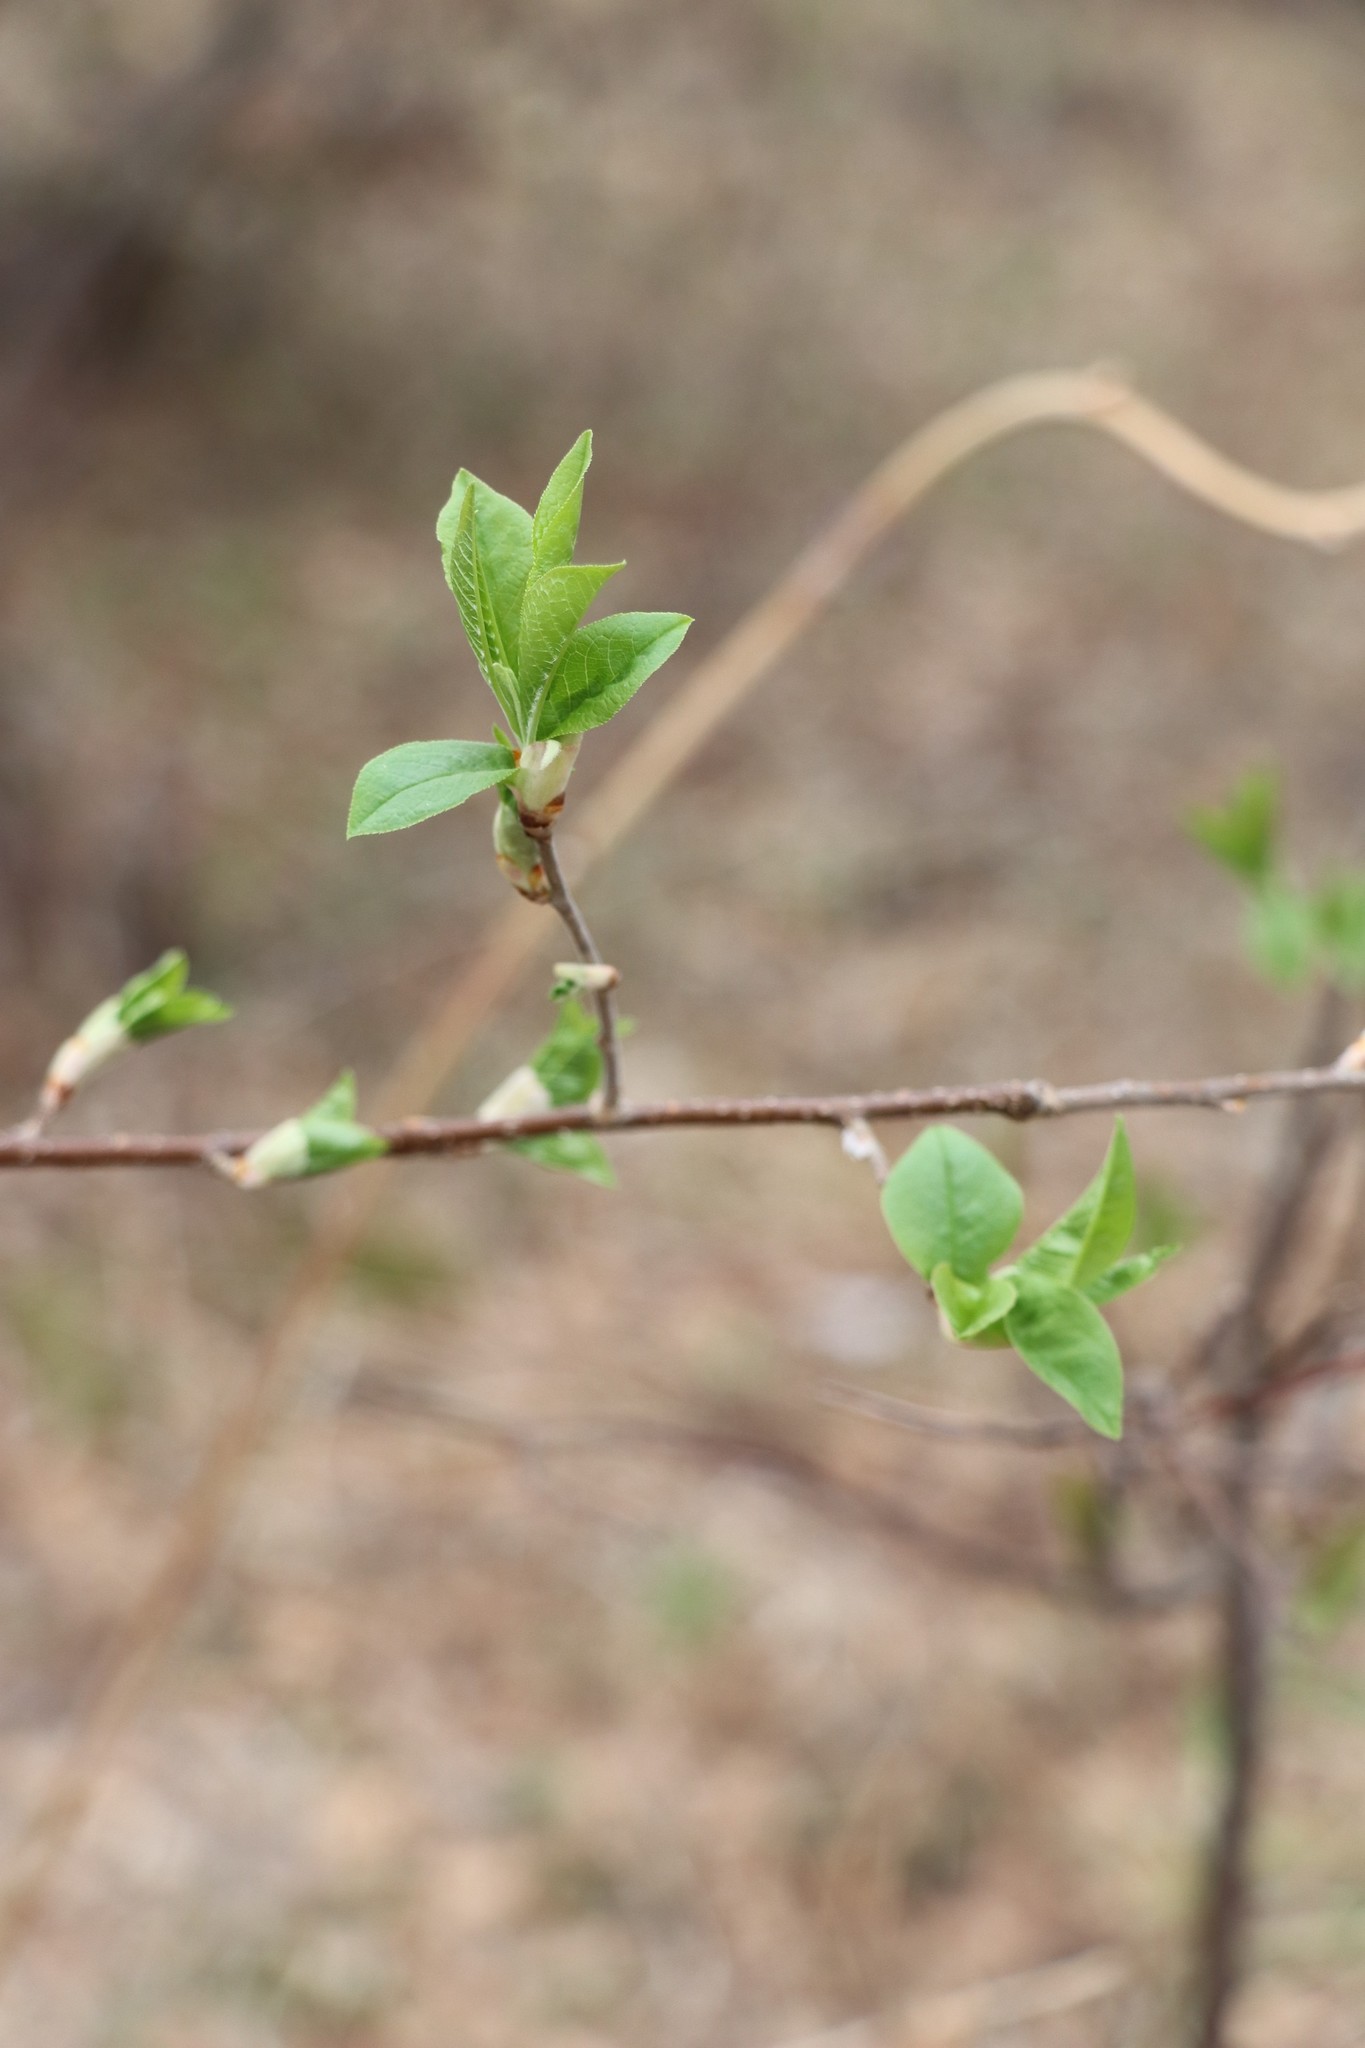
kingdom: Plantae
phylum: Tracheophyta
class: Magnoliopsida
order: Rosales
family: Rosaceae
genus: Prunus
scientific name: Prunus padus
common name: Bird cherry
